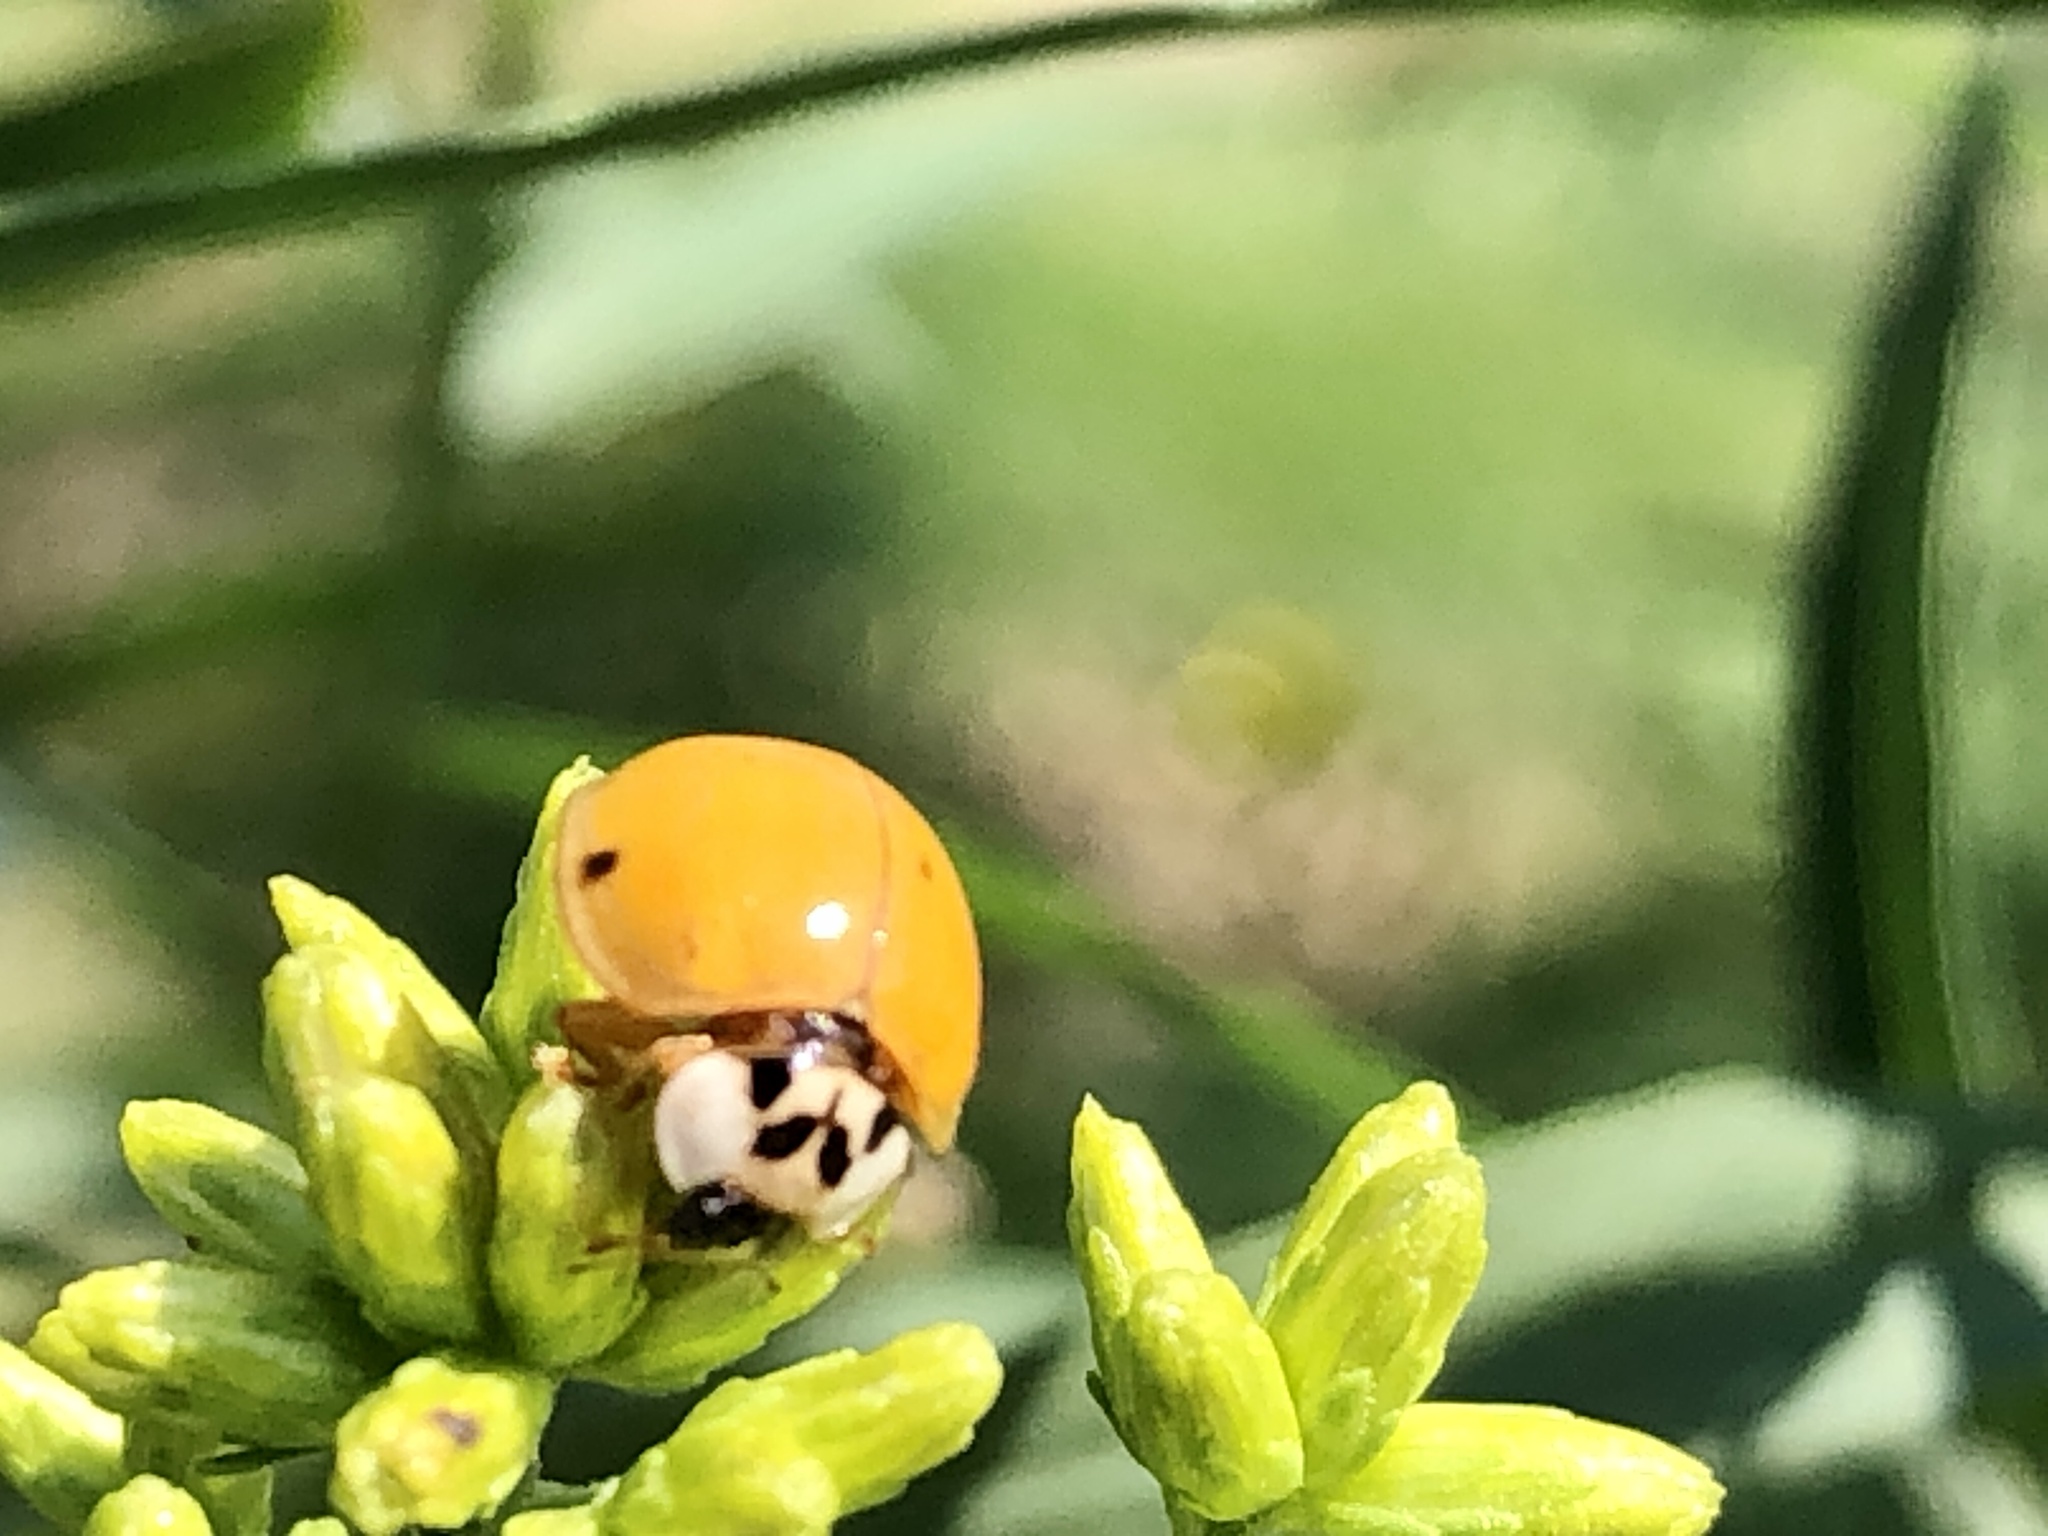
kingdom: Animalia
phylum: Arthropoda
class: Insecta
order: Coleoptera
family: Coccinellidae
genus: Harmonia
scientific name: Harmonia axyridis
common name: Harlequin ladybird
